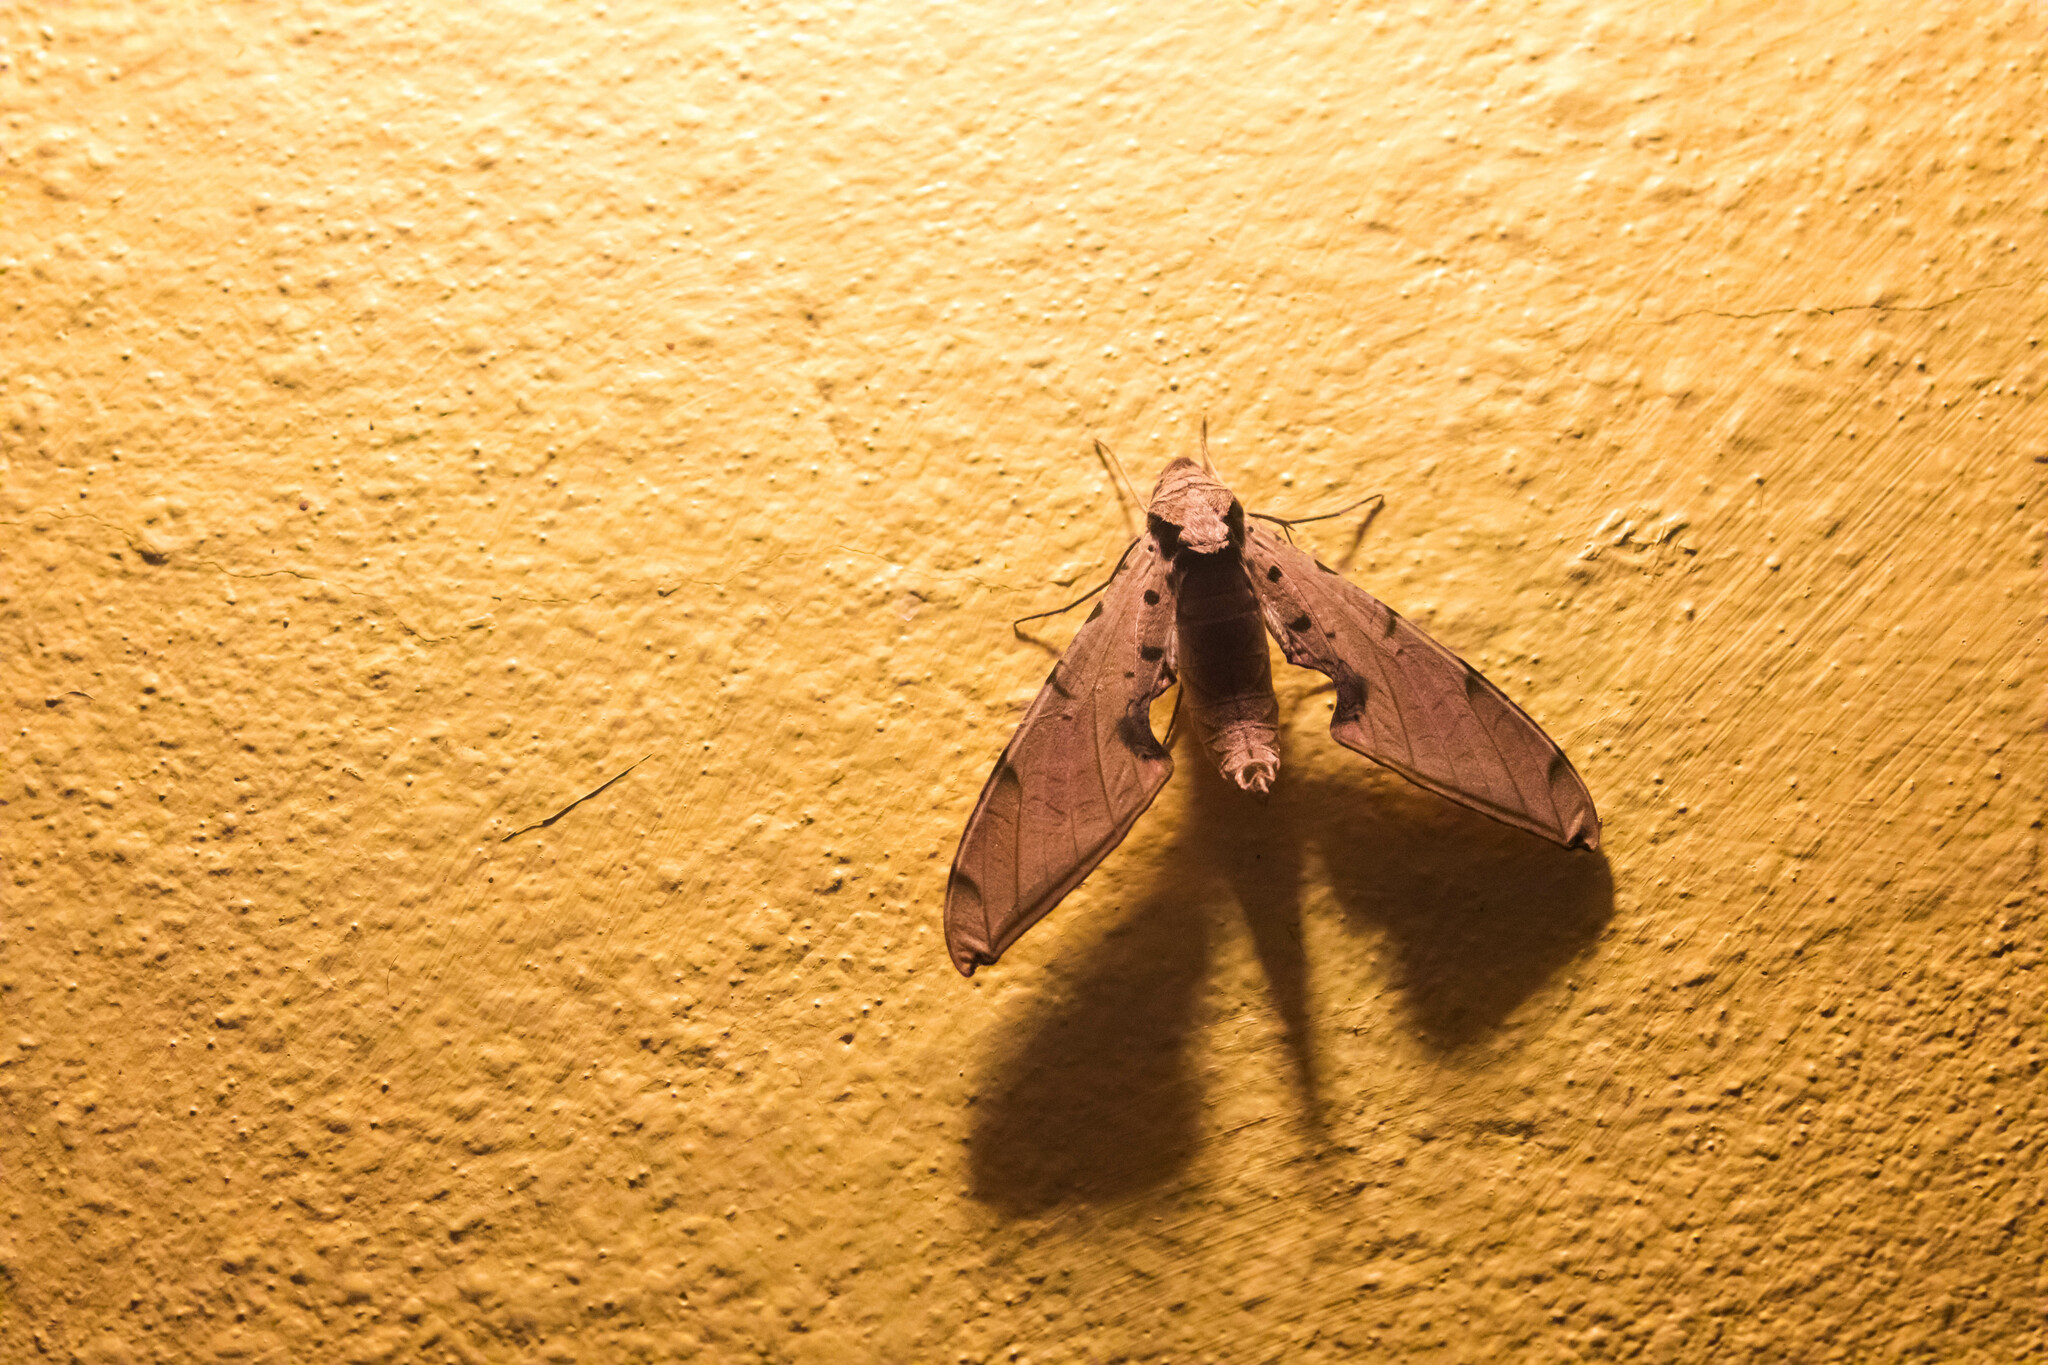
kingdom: Animalia
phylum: Arthropoda
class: Insecta
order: Lepidoptera
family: Sphingidae
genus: Protambulyx
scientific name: Protambulyx strigilis
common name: Streaked sphinx
